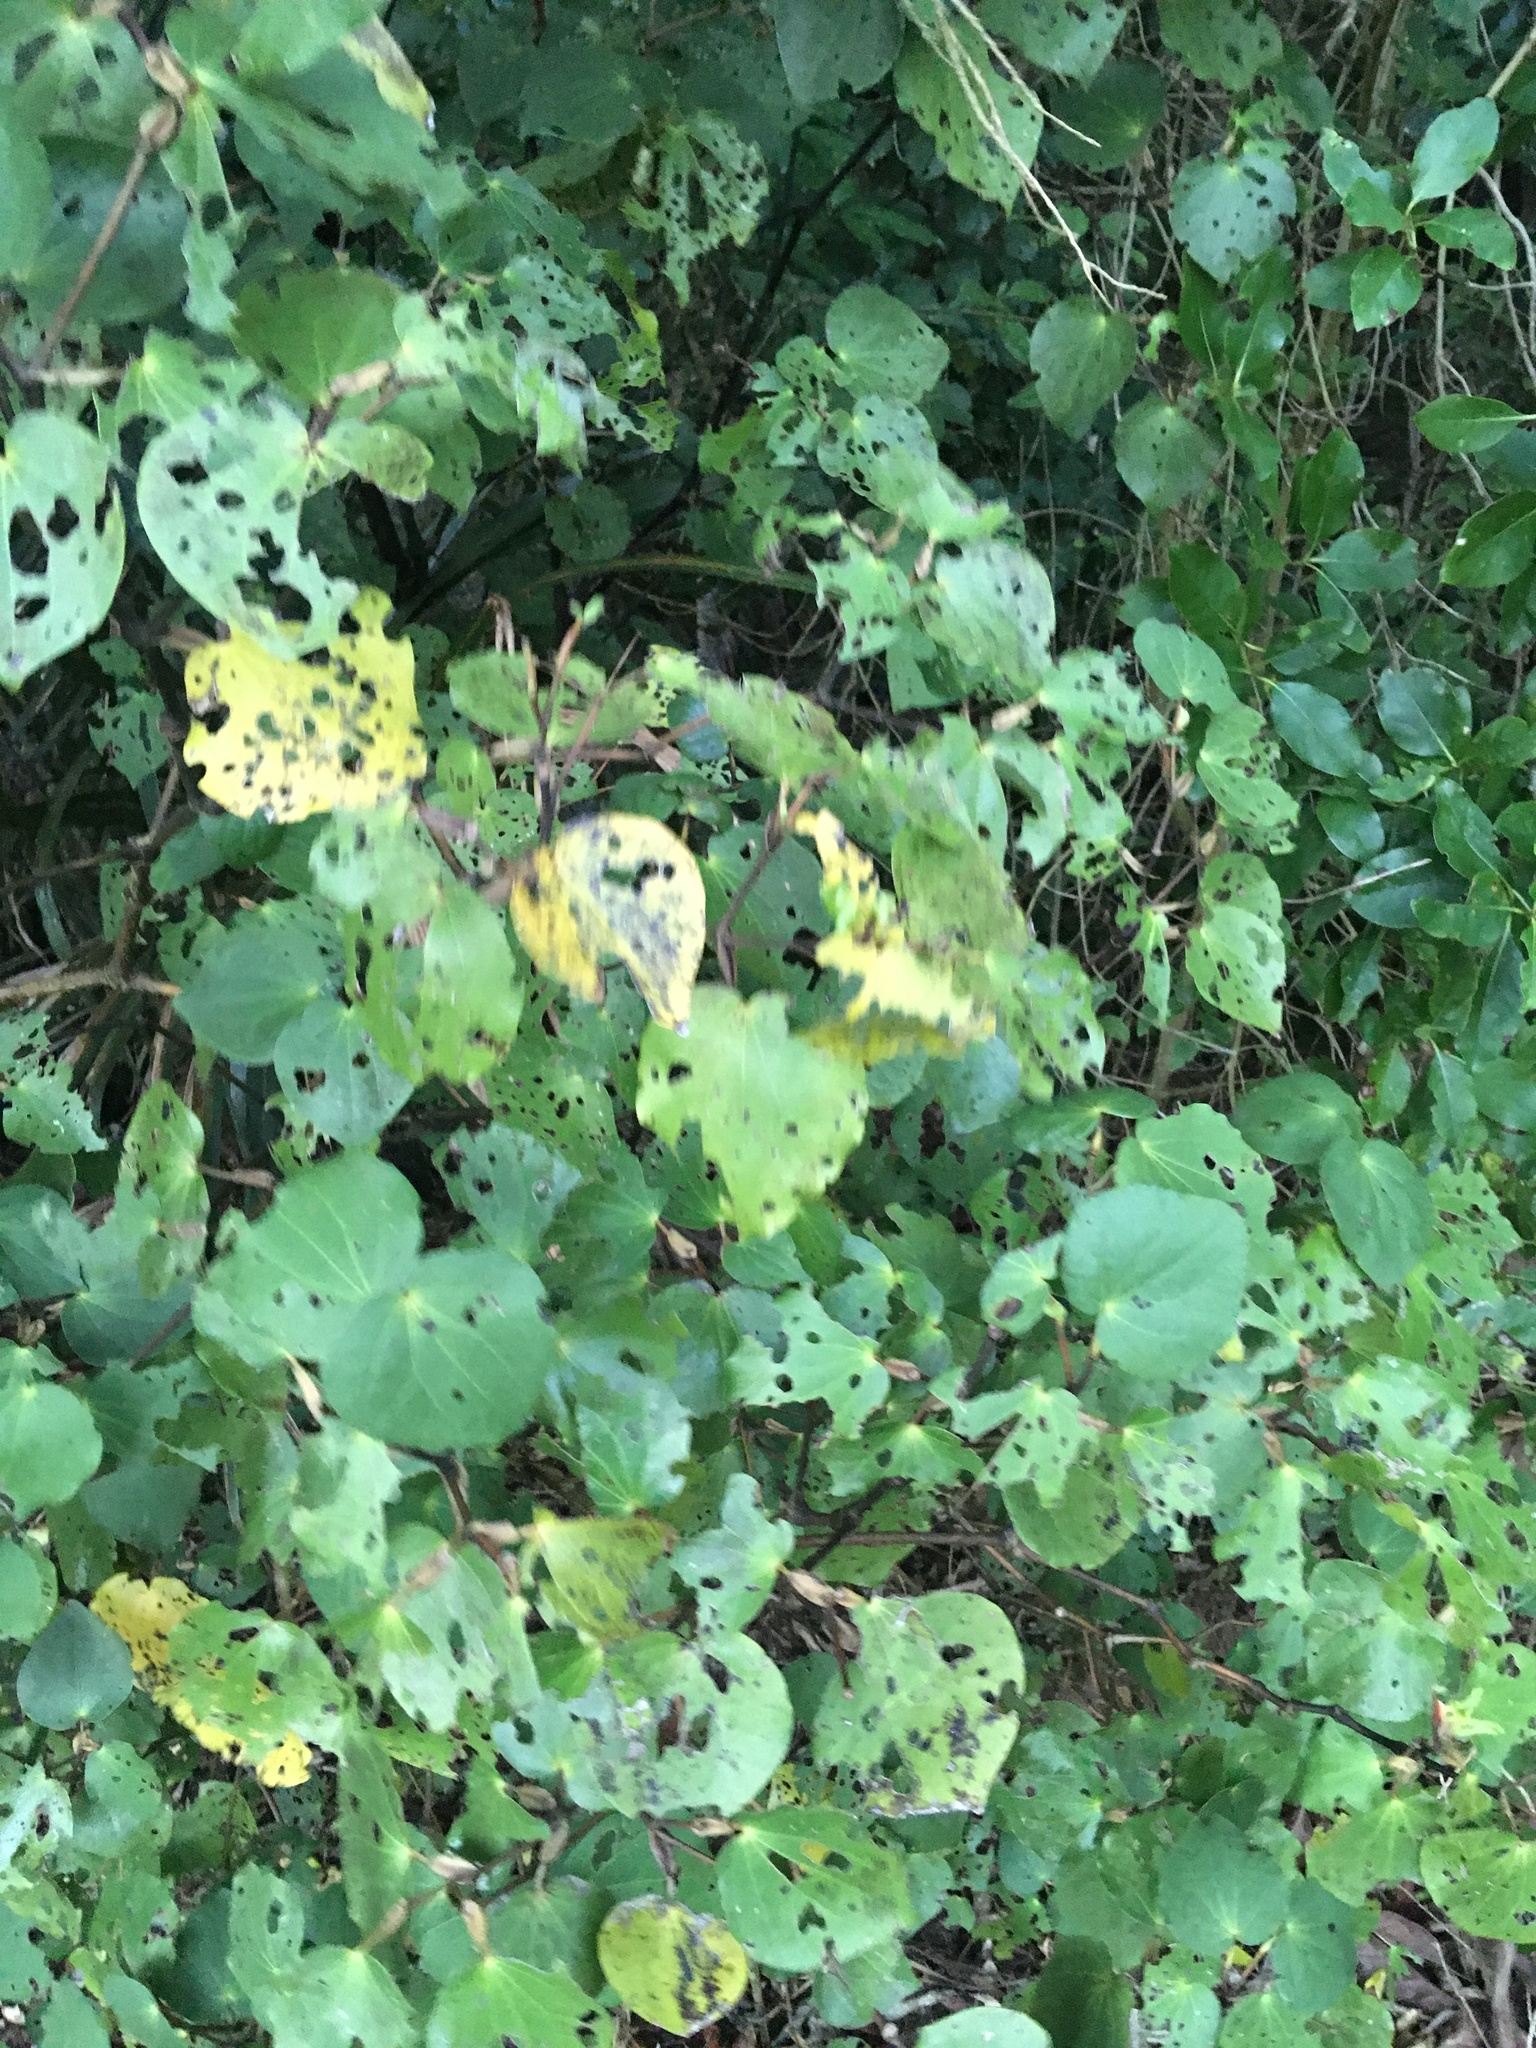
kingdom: Plantae
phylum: Tracheophyta
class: Magnoliopsida
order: Piperales
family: Piperaceae
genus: Macropiper
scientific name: Macropiper excelsum
